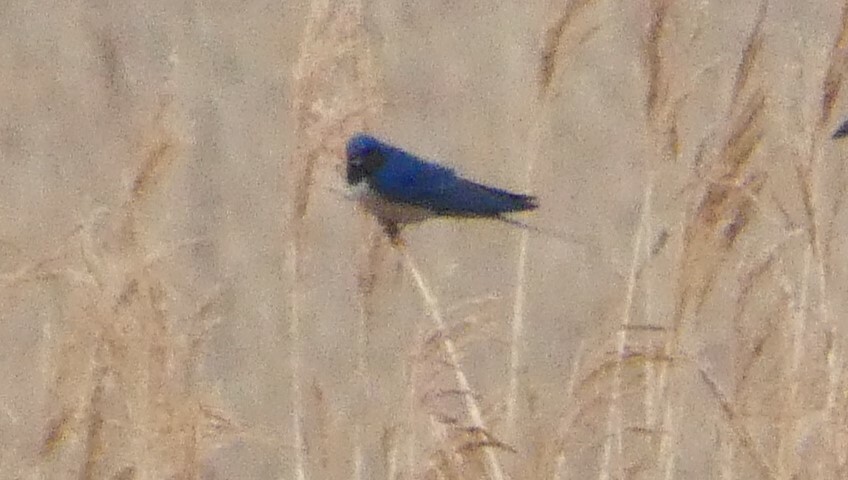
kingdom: Animalia
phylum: Chordata
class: Aves
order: Passeriformes
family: Hirundinidae
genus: Hirundo
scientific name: Hirundo rustica
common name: Barn swallow
